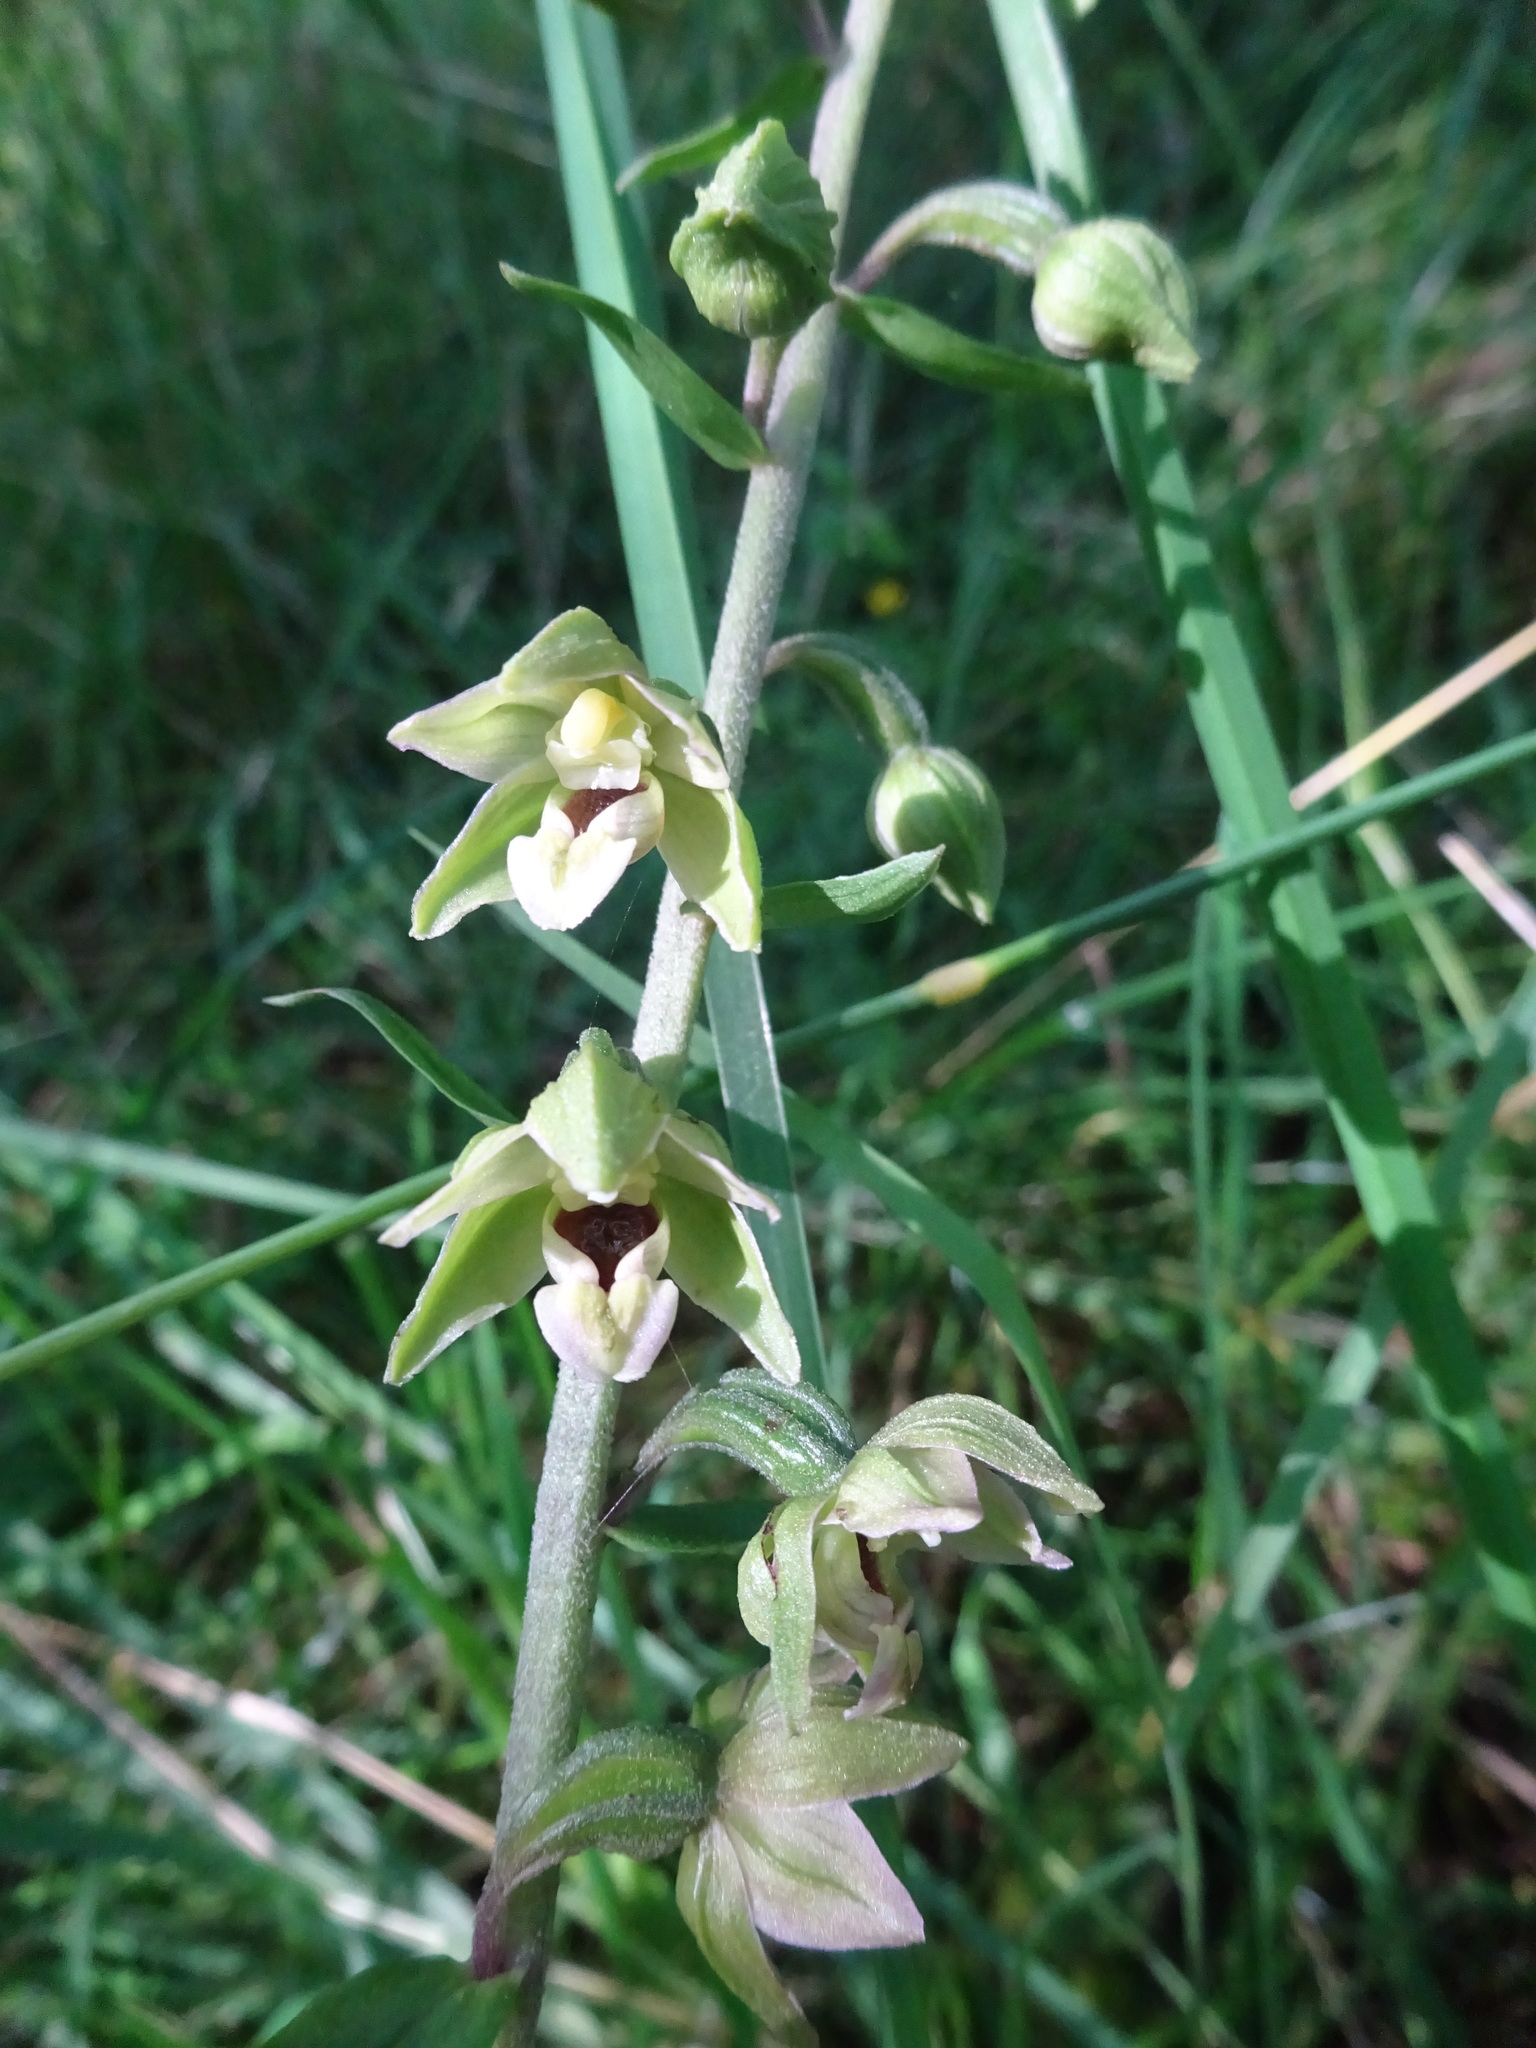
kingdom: Plantae
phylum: Tracheophyta
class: Liliopsida
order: Asparagales
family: Orchidaceae
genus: Epipactis
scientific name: Epipactis helleborine
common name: Broad-leaved helleborine
